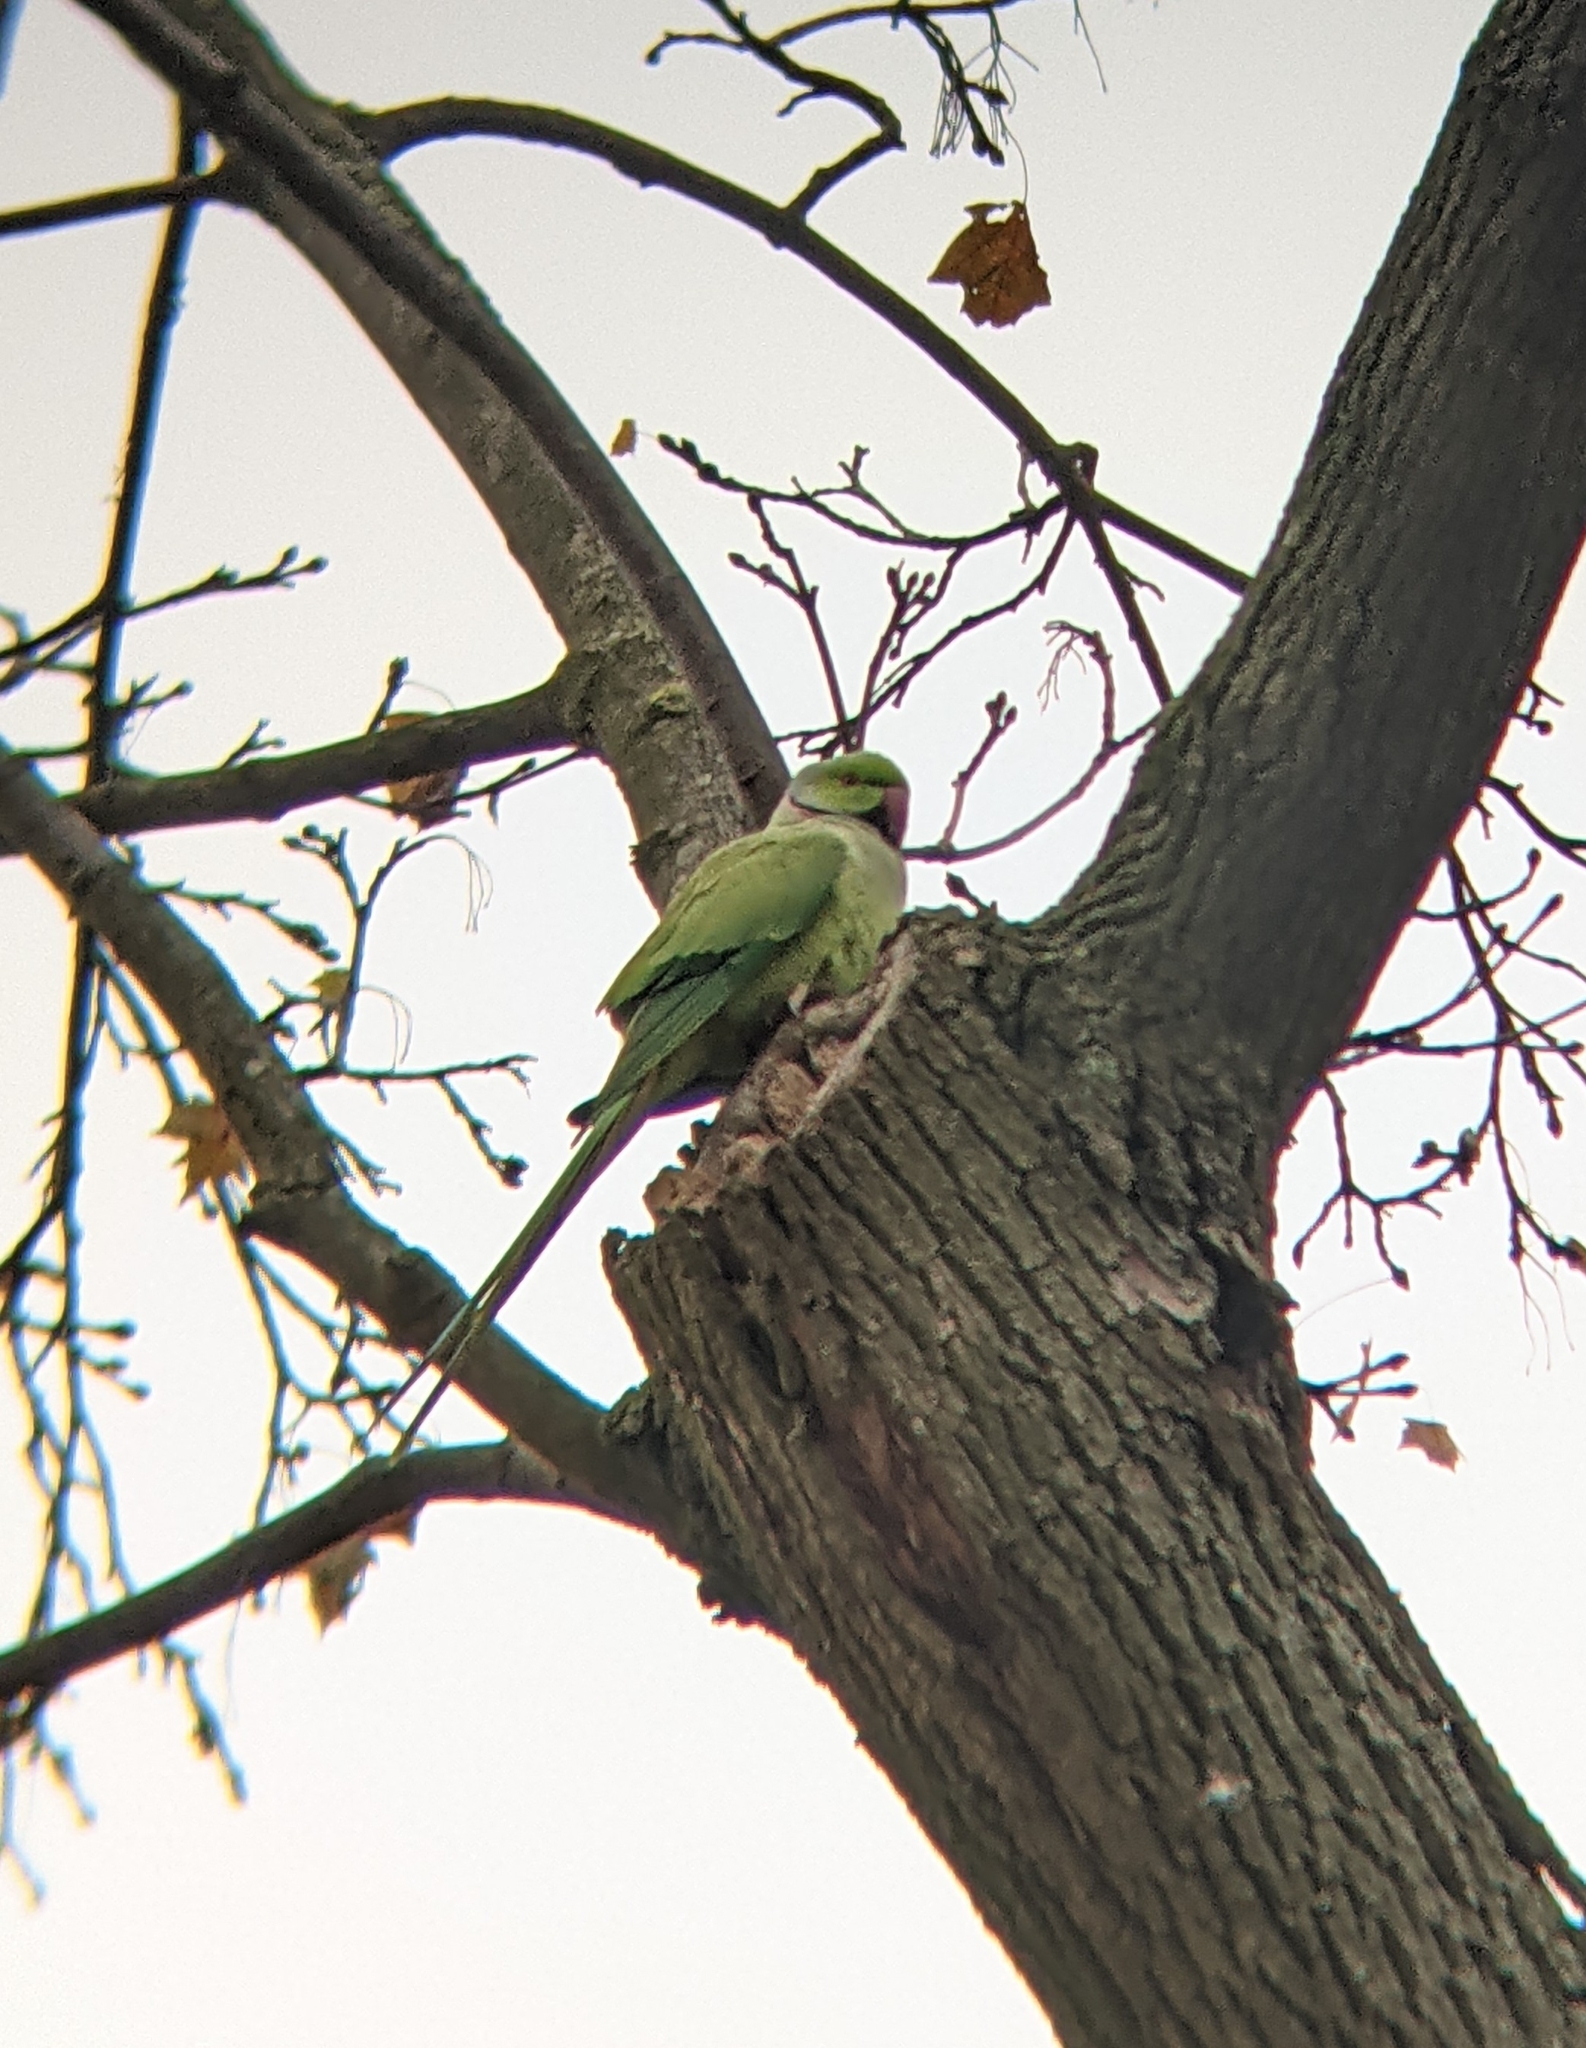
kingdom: Animalia
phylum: Chordata
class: Aves
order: Psittaciformes
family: Psittacidae
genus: Psittacula
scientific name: Psittacula krameri
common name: Rose-ringed parakeet
